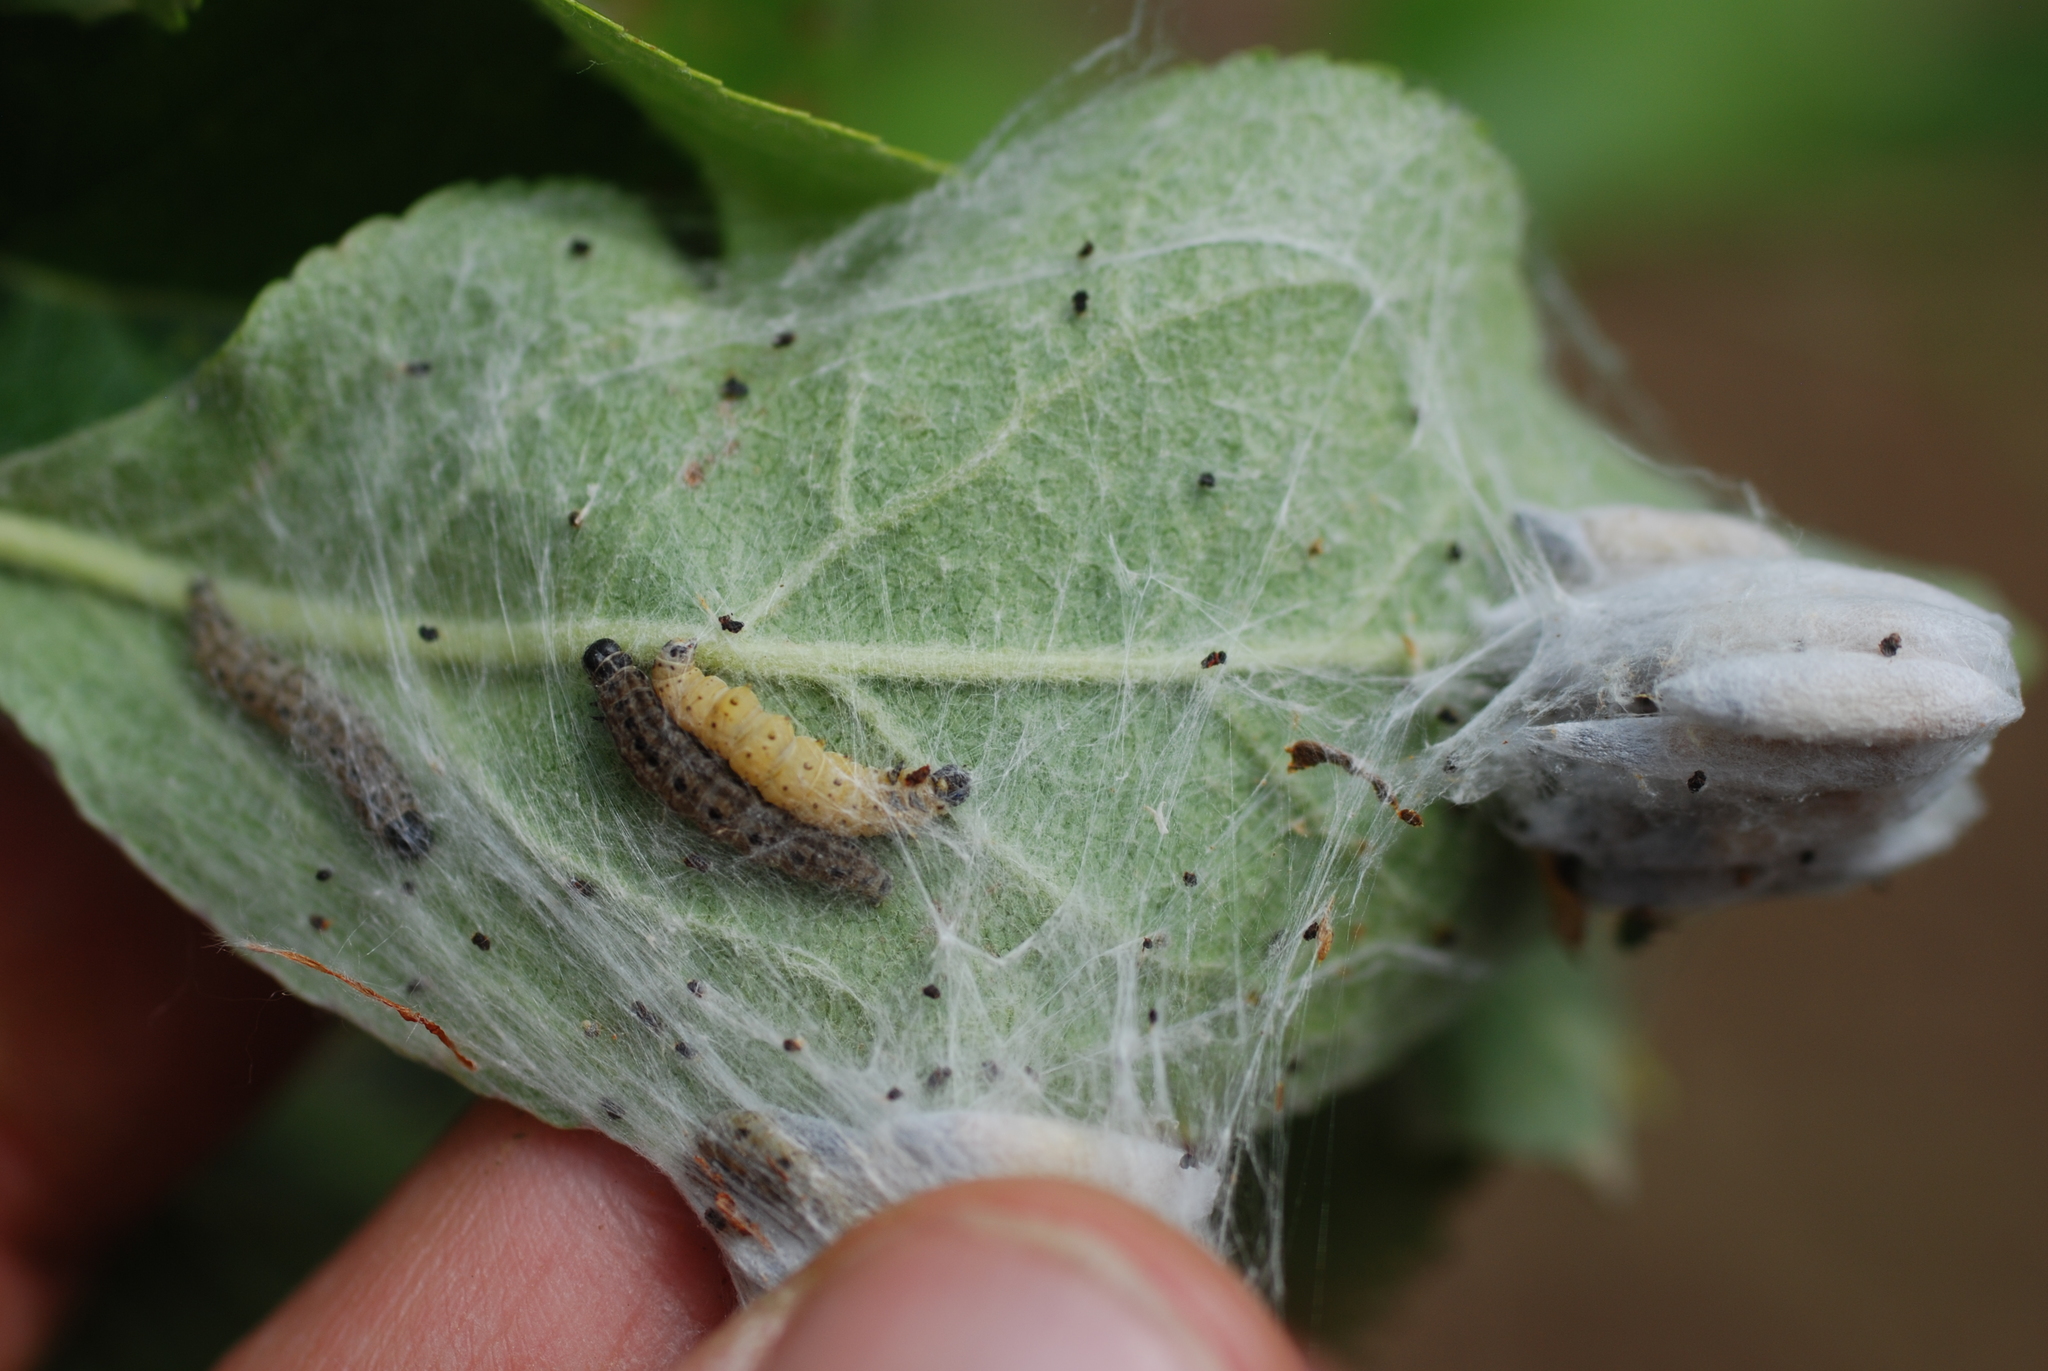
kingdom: Animalia
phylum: Arthropoda
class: Insecta
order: Lepidoptera
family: Yponomeutidae
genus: Yponomeuta
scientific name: Yponomeuta padella
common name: Orchard ermine
